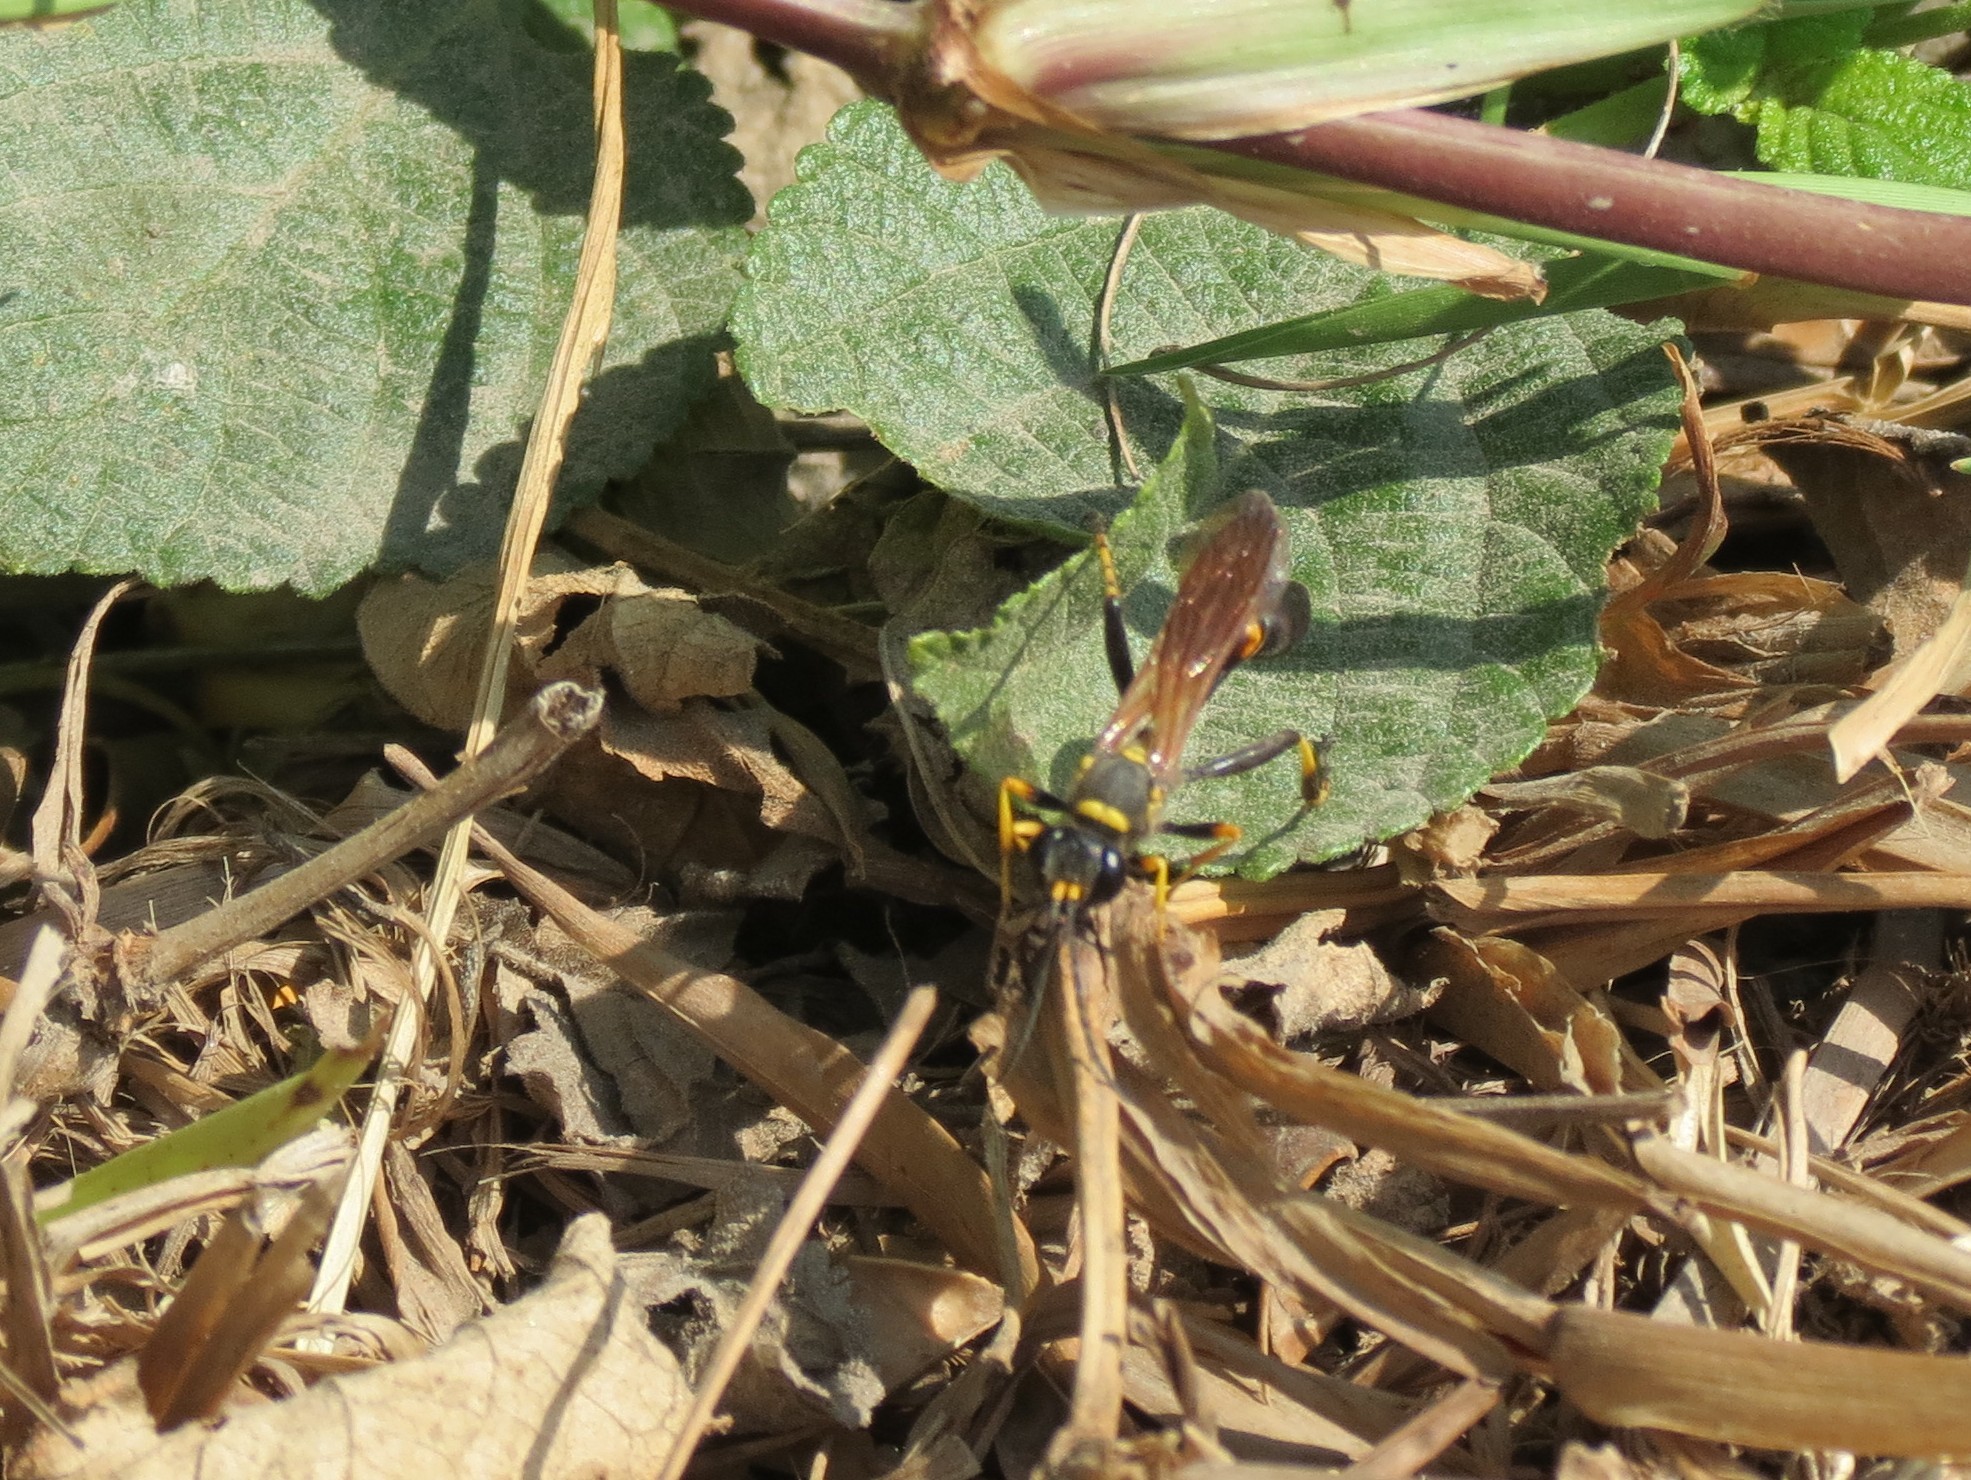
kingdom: Animalia
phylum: Arthropoda
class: Insecta
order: Hymenoptera
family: Sphecidae
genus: Sceliphron
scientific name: Sceliphron caementarium
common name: Mud dauber
